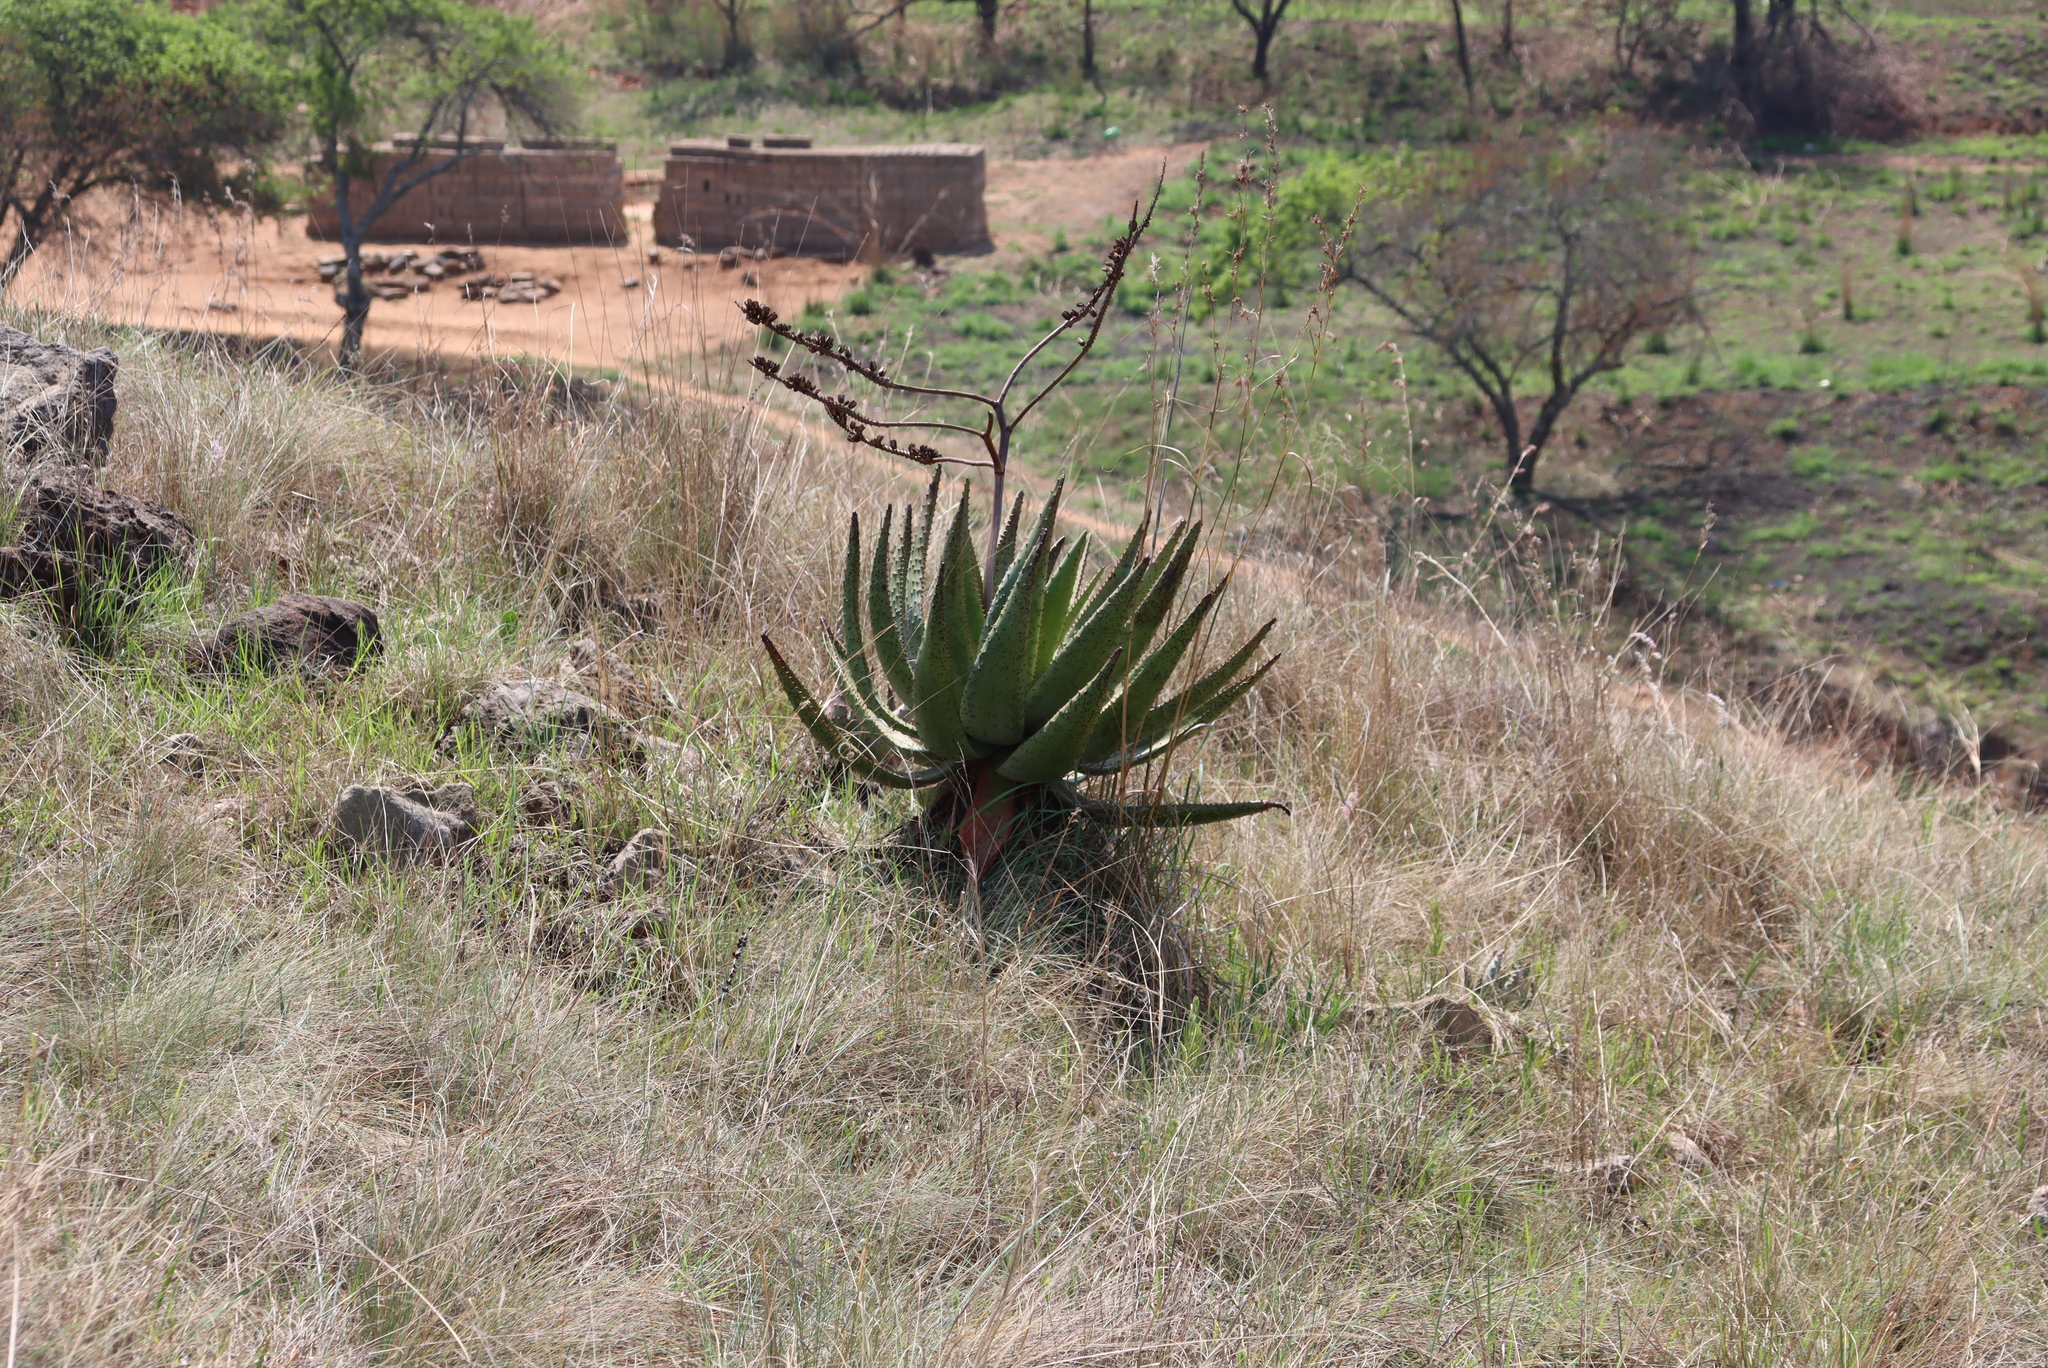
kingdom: Plantae
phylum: Tracheophyta
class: Liliopsida
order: Asparagales
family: Asphodelaceae
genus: Aloe
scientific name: Aloe marlothii
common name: Flat-flowered aloe
